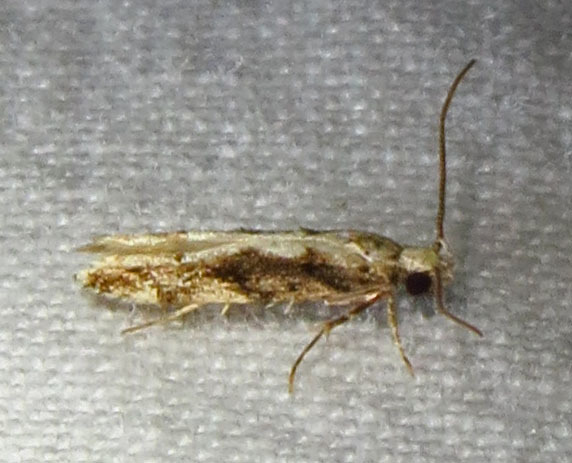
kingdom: Animalia
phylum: Arthropoda
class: Insecta
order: Lepidoptera
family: Gelechiidae
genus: Coleotechnites
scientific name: Coleotechnites florae
